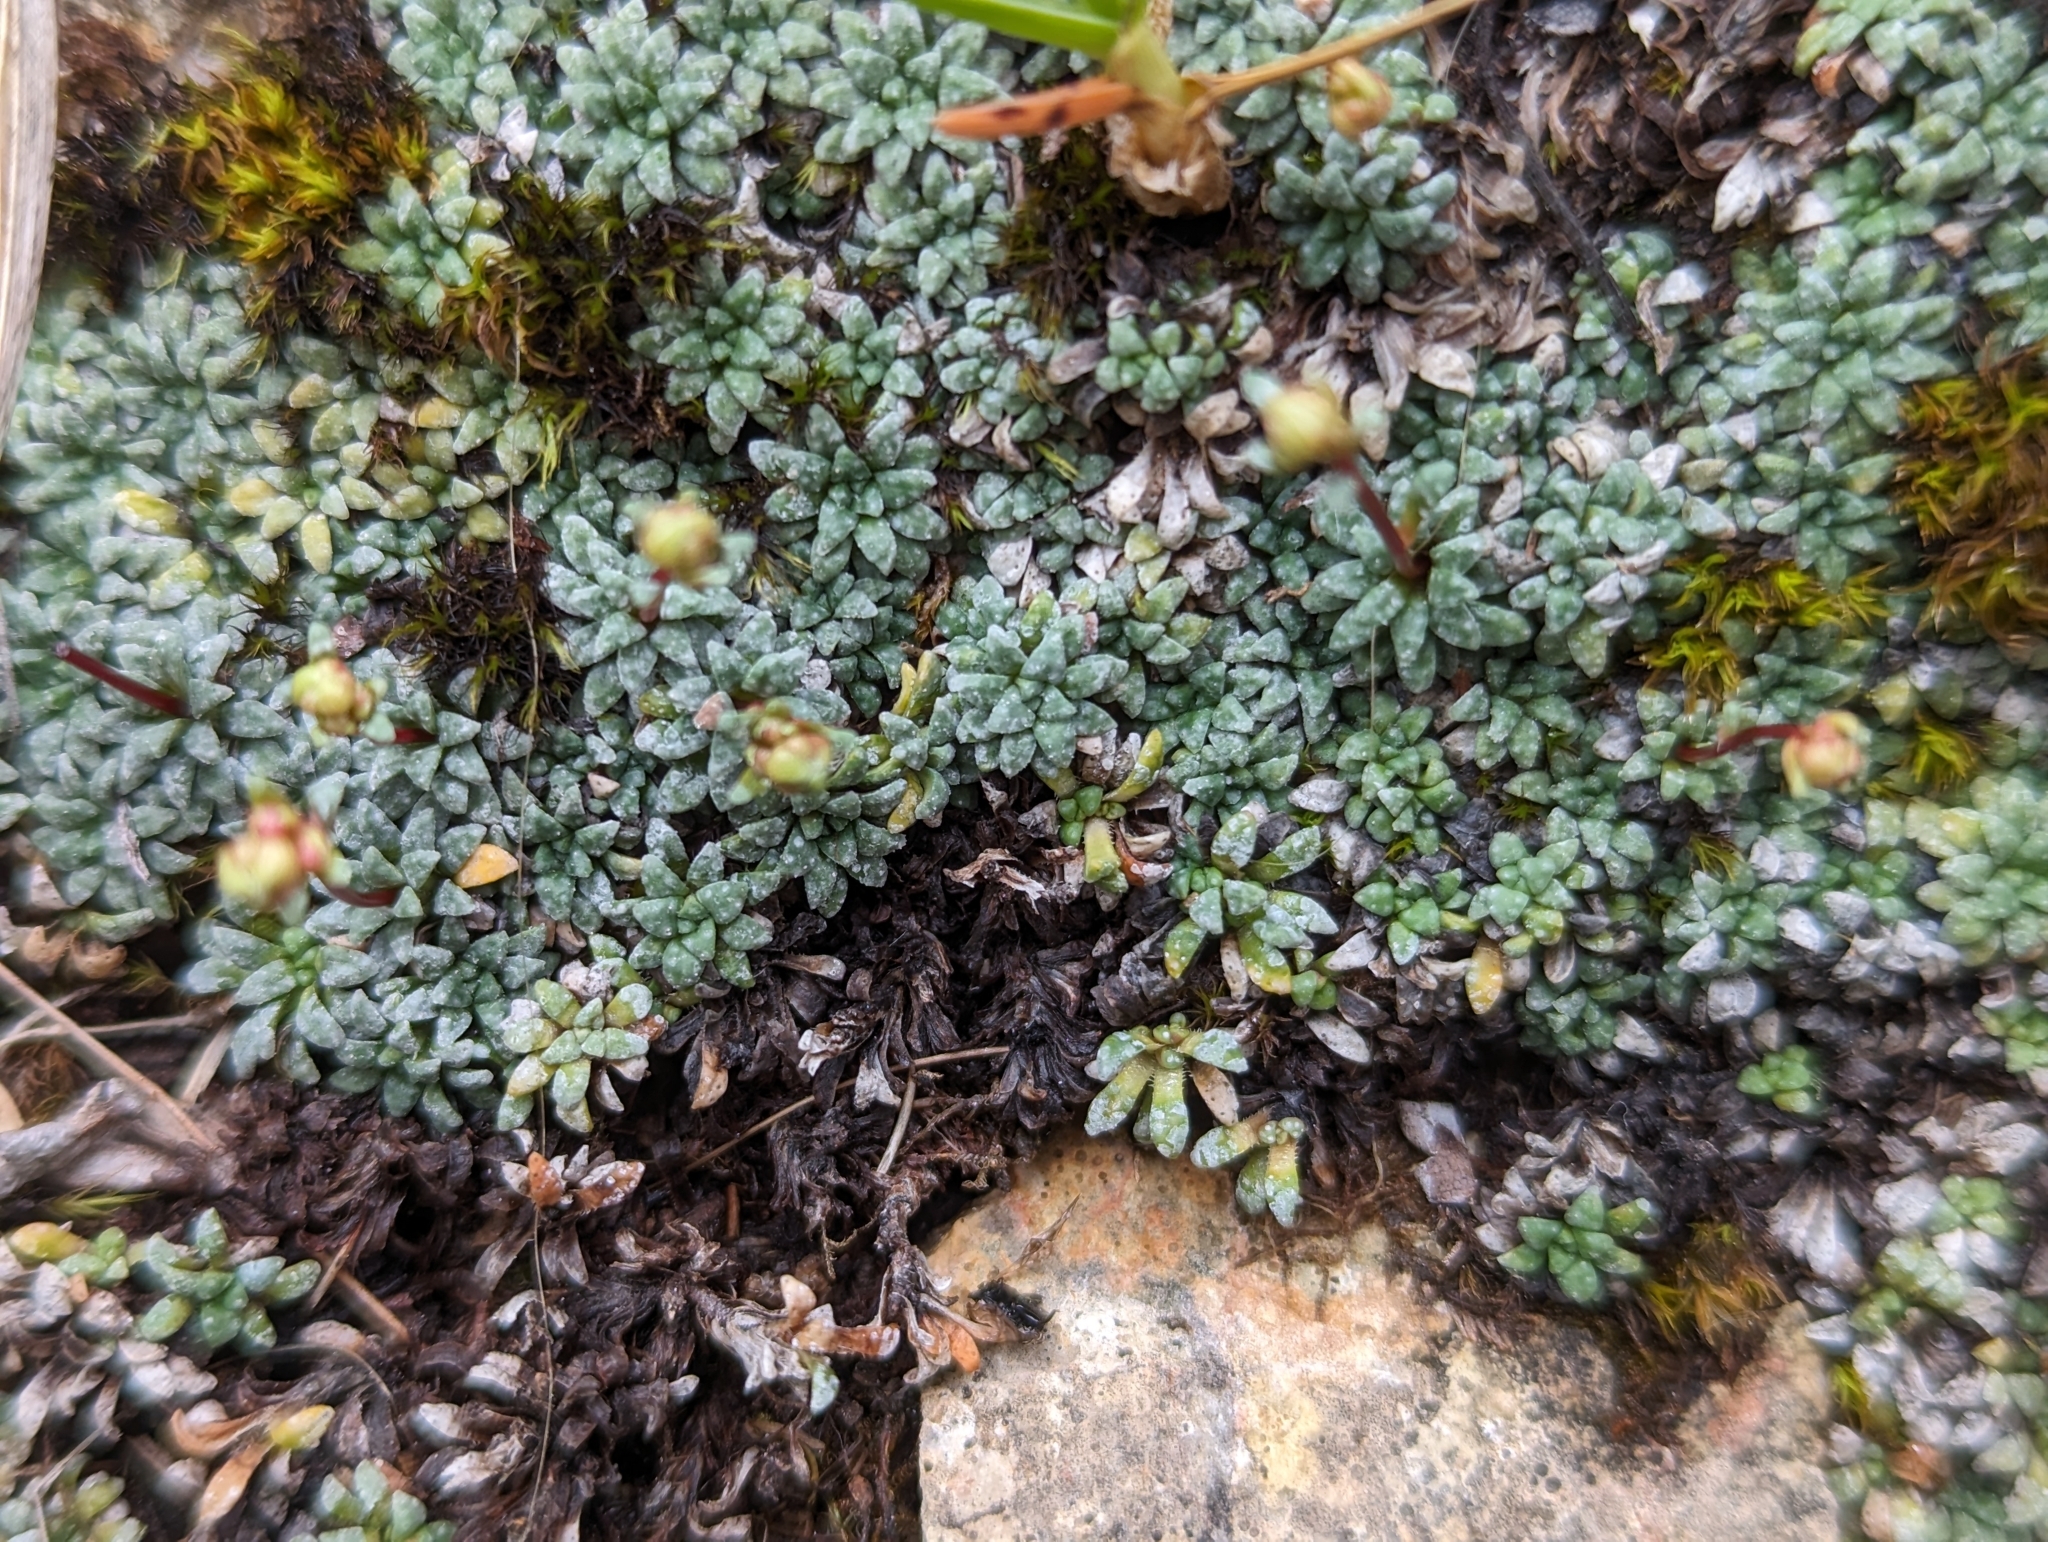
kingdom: Plantae
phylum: Tracheophyta
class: Magnoliopsida
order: Saxifragales
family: Saxifragaceae
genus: Saxifraga
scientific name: Saxifraga caesia
